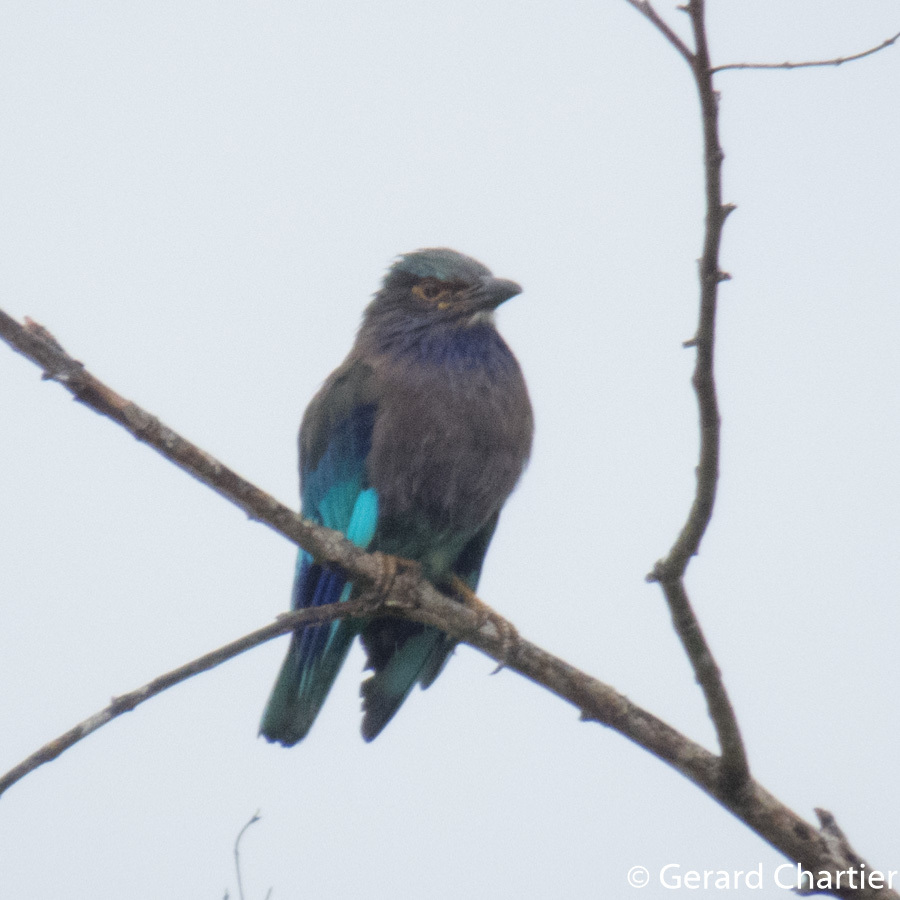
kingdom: Animalia
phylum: Chordata
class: Aves
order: Coraciiformes
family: Coraciidae
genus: Coracias
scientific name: Coracias affinis
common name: Indochinese roller
